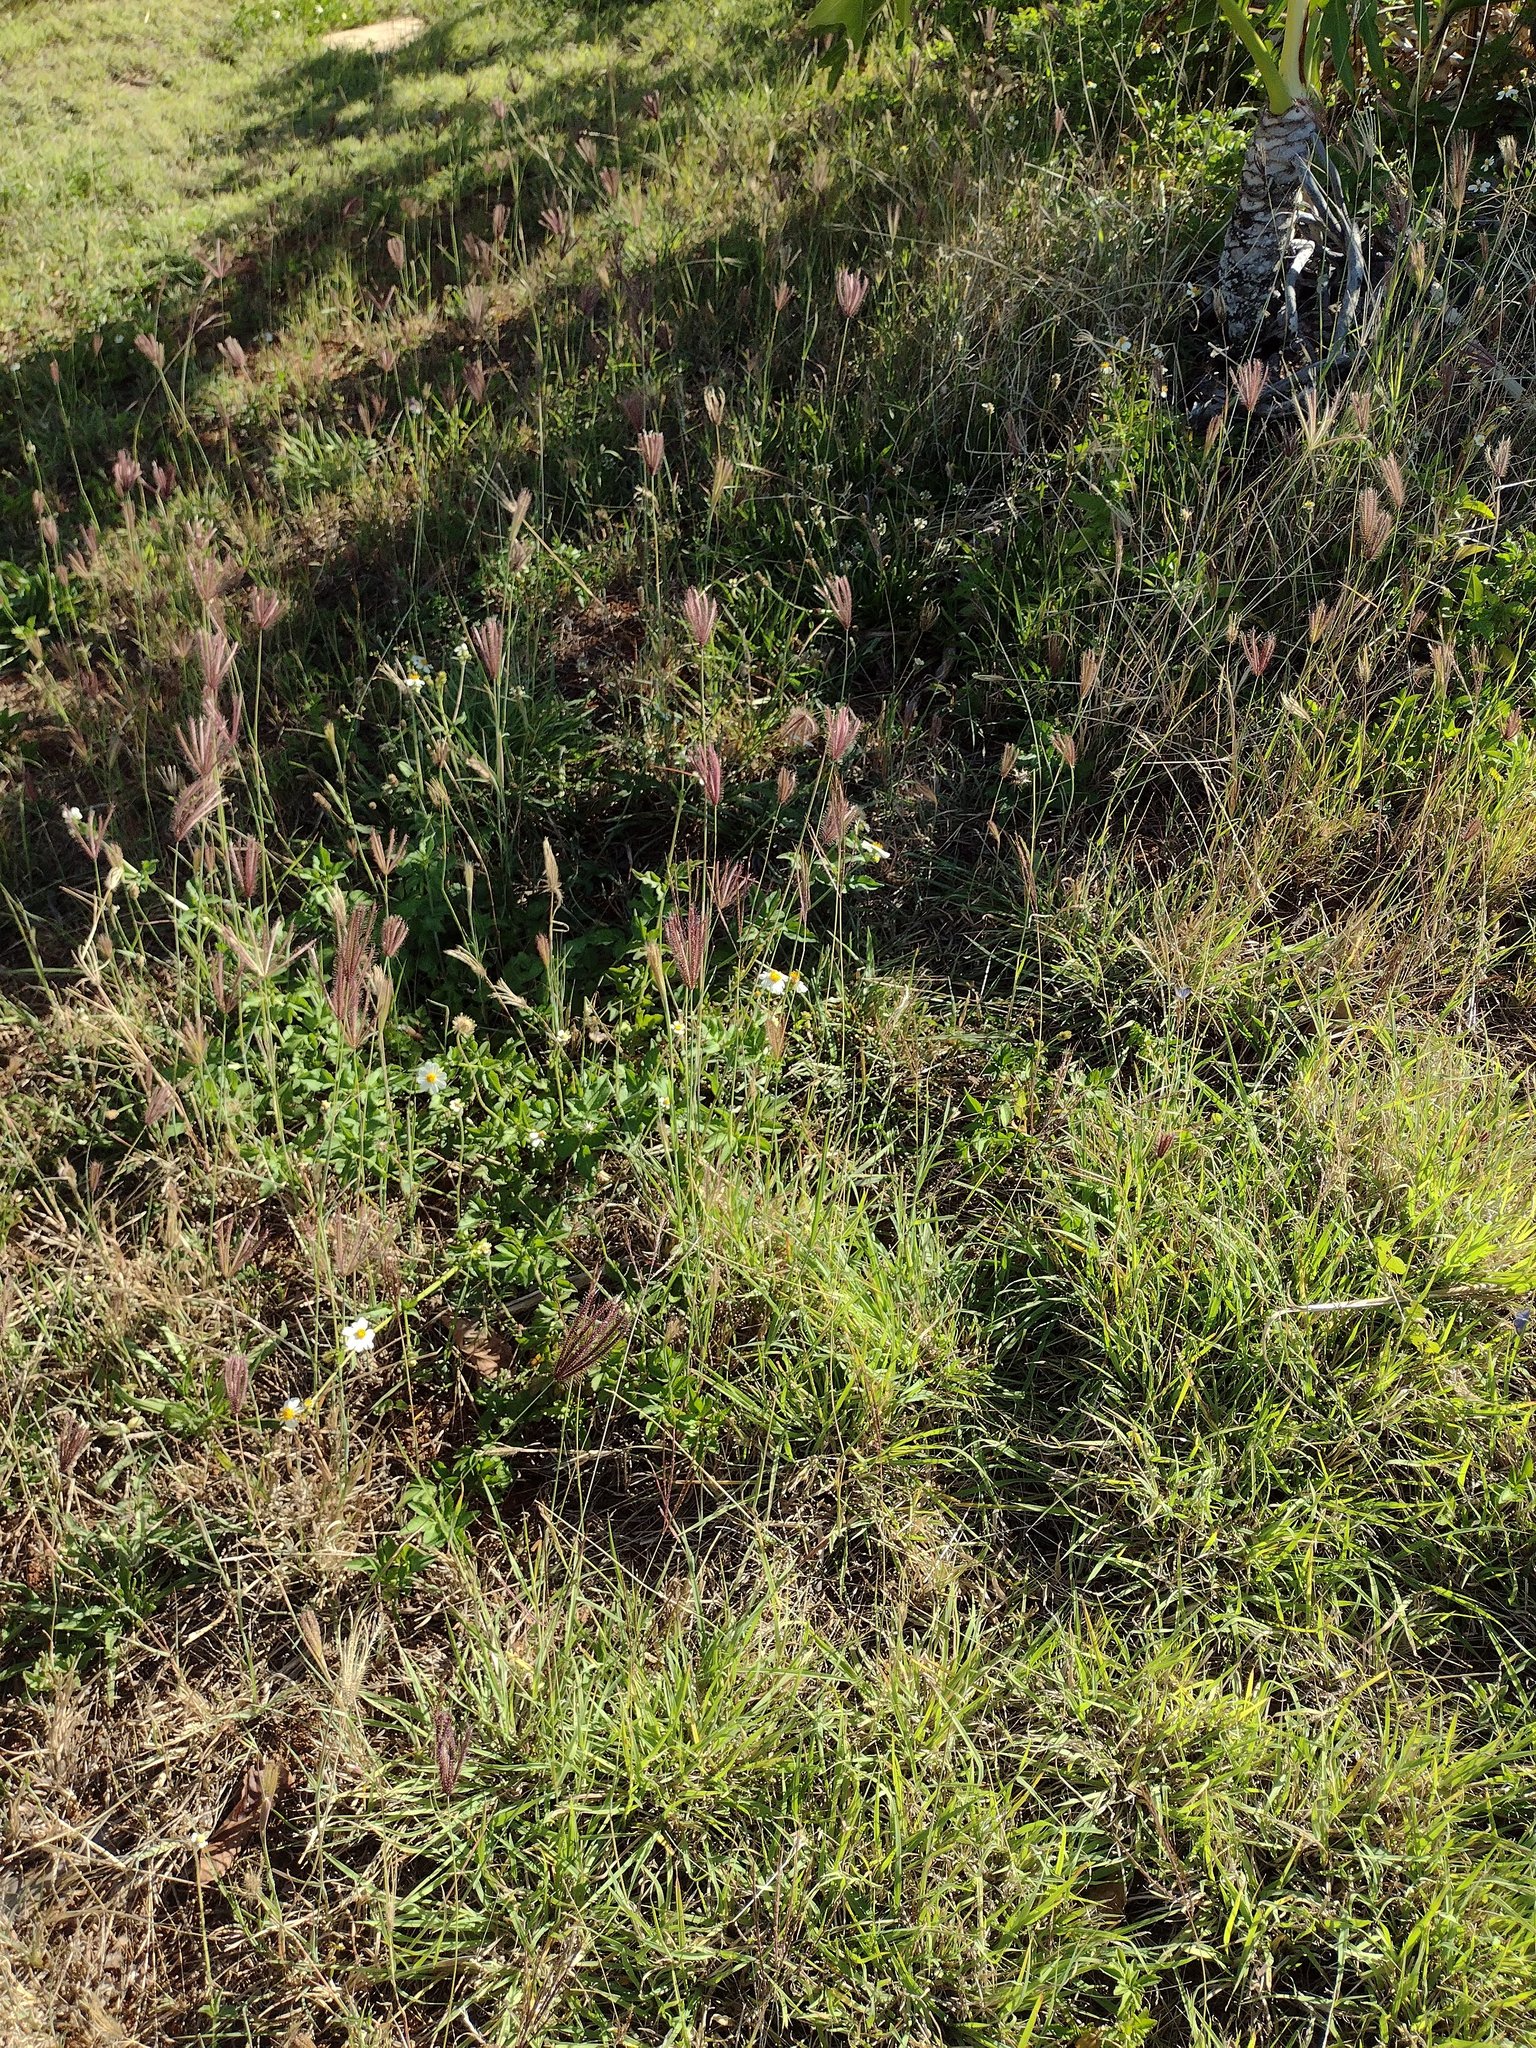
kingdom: Plantae
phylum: Tracheophyta
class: Liliopsida
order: Poales
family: Poaceae
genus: Chloris
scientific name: Chloris barbata
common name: Swollen fingergrass
